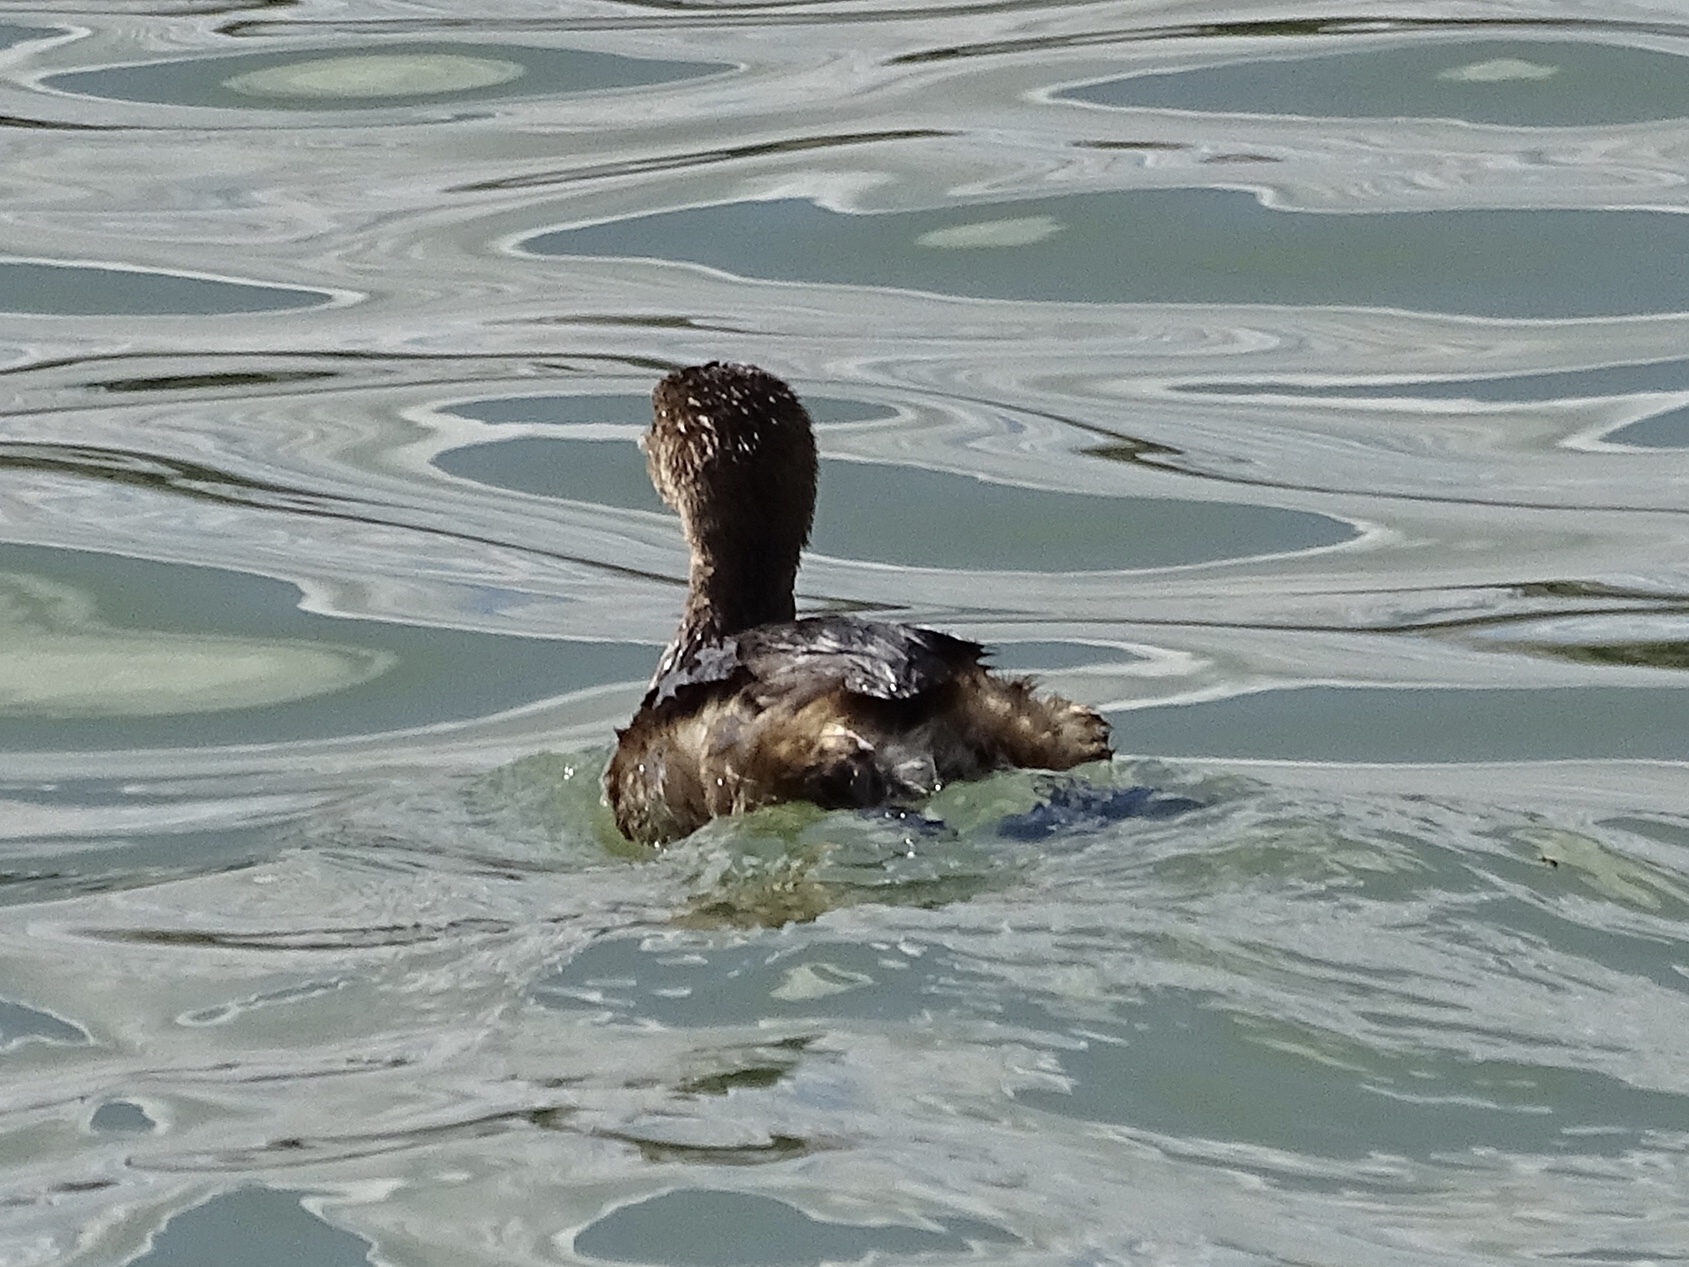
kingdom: Animalia
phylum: Chordata
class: Aves
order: Podicipediformes
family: Podicipedidae
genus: Podilymbus
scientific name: Podilymbus podiceps
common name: Pied-billed grebe
